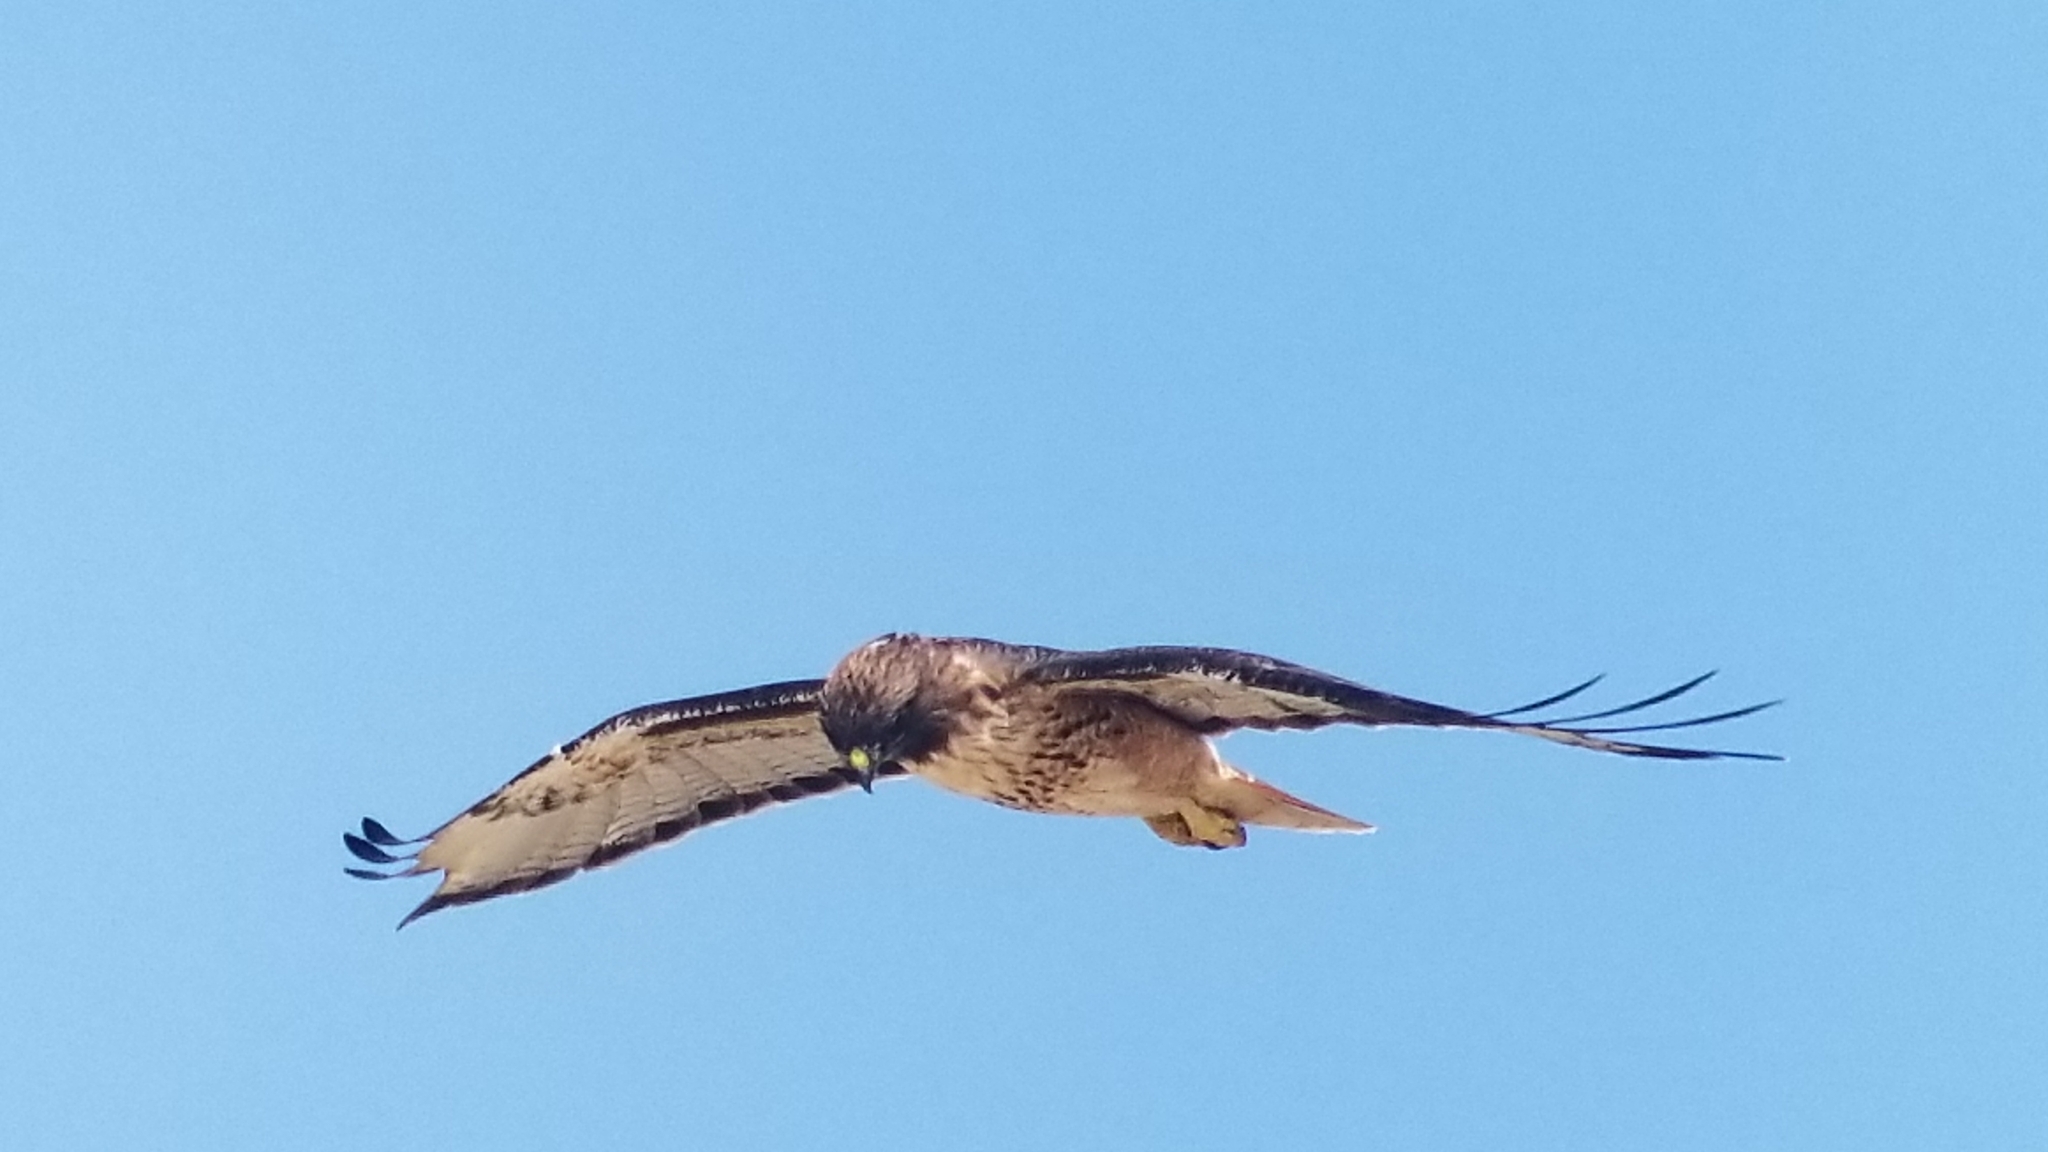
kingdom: Animalia
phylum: Chordata
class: Aves
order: Accipitriformes
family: Accipitridae
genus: Buteo
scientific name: Buteo jamaicensis
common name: Red-tailed hawk
